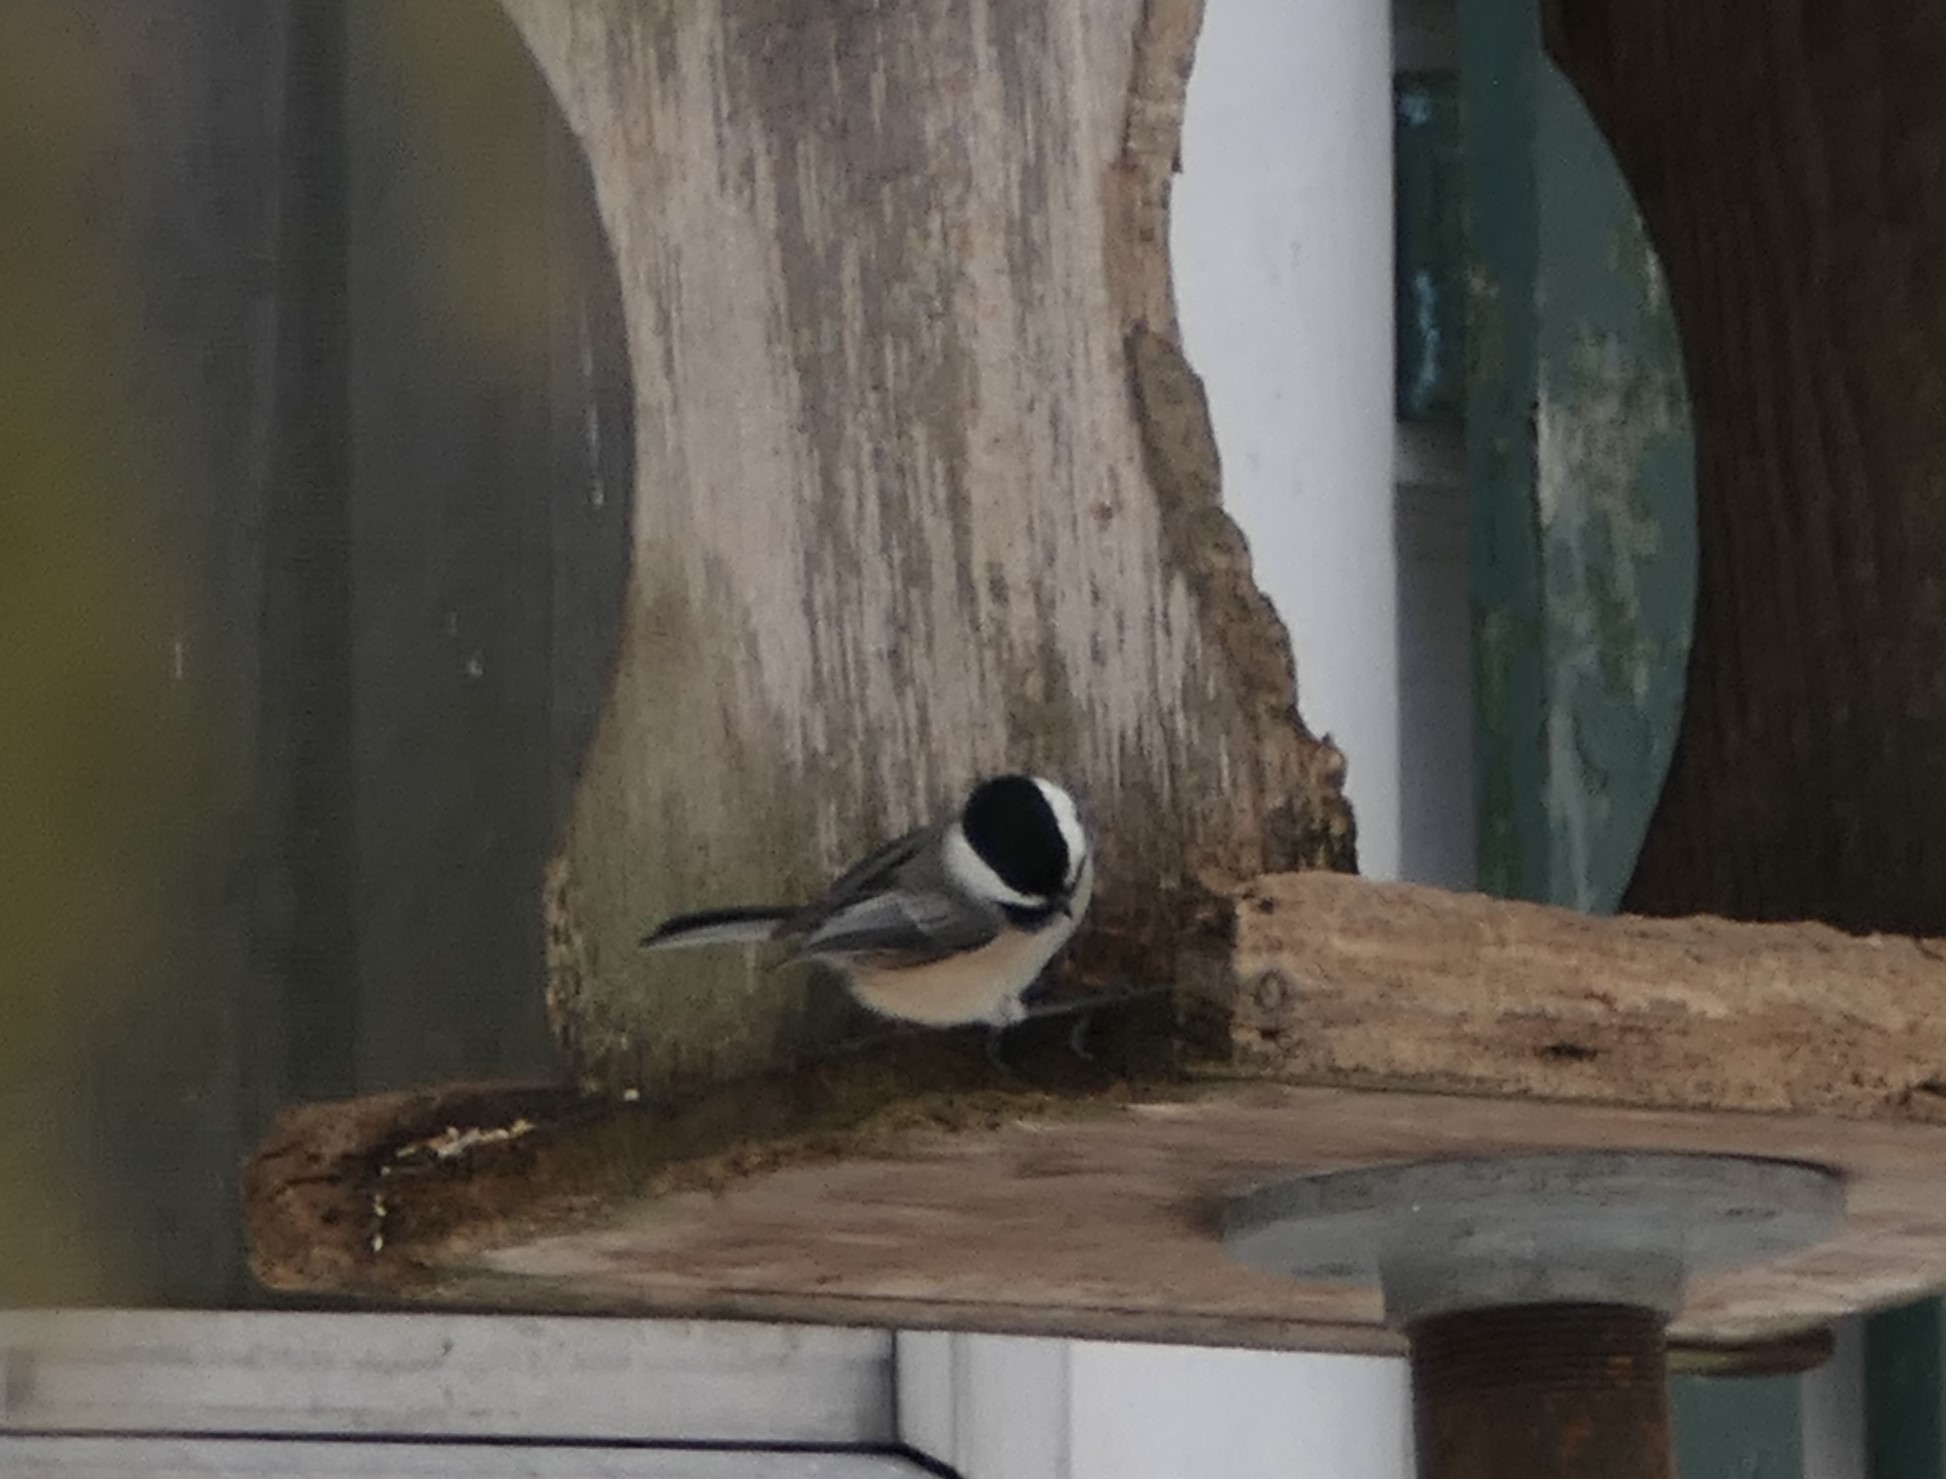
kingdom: Animalia
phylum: Chordata
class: Aves
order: Passeriformes
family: Paridae
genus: Poecile
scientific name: Poecile atricapillus
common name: Black-capped chickadee
